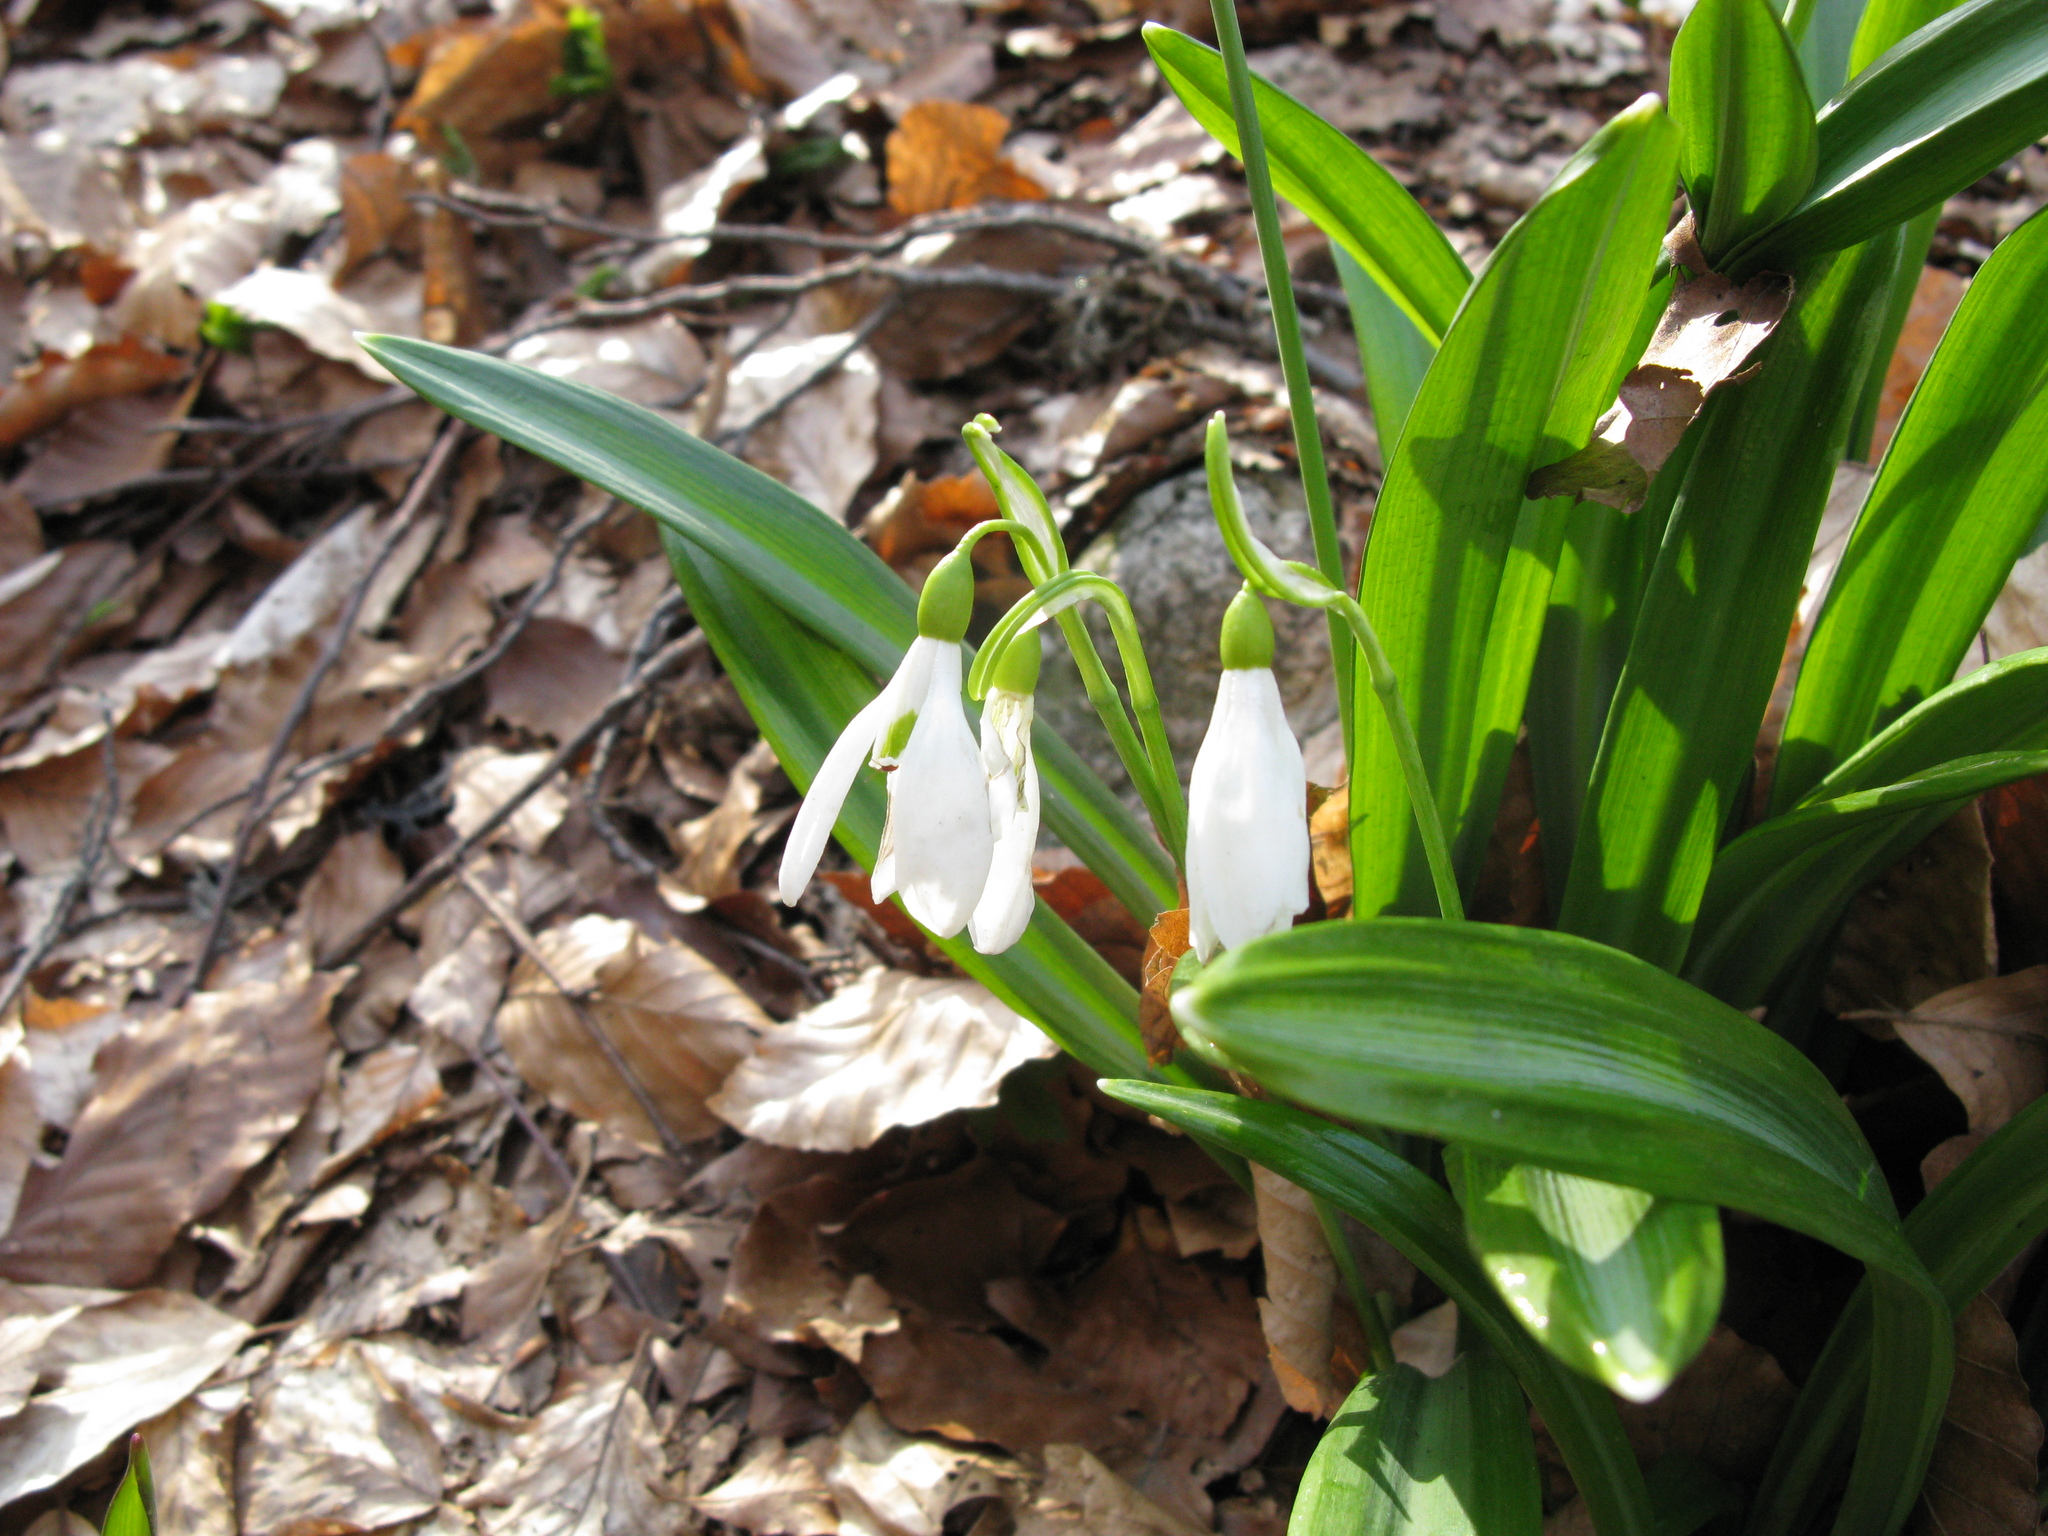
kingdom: Plantae
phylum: Tracheophyta
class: Liliopsida
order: Asparagales
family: Amaryllidaceae
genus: Galanthus
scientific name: Galanthus plicatus
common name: Pleated snowdrop
